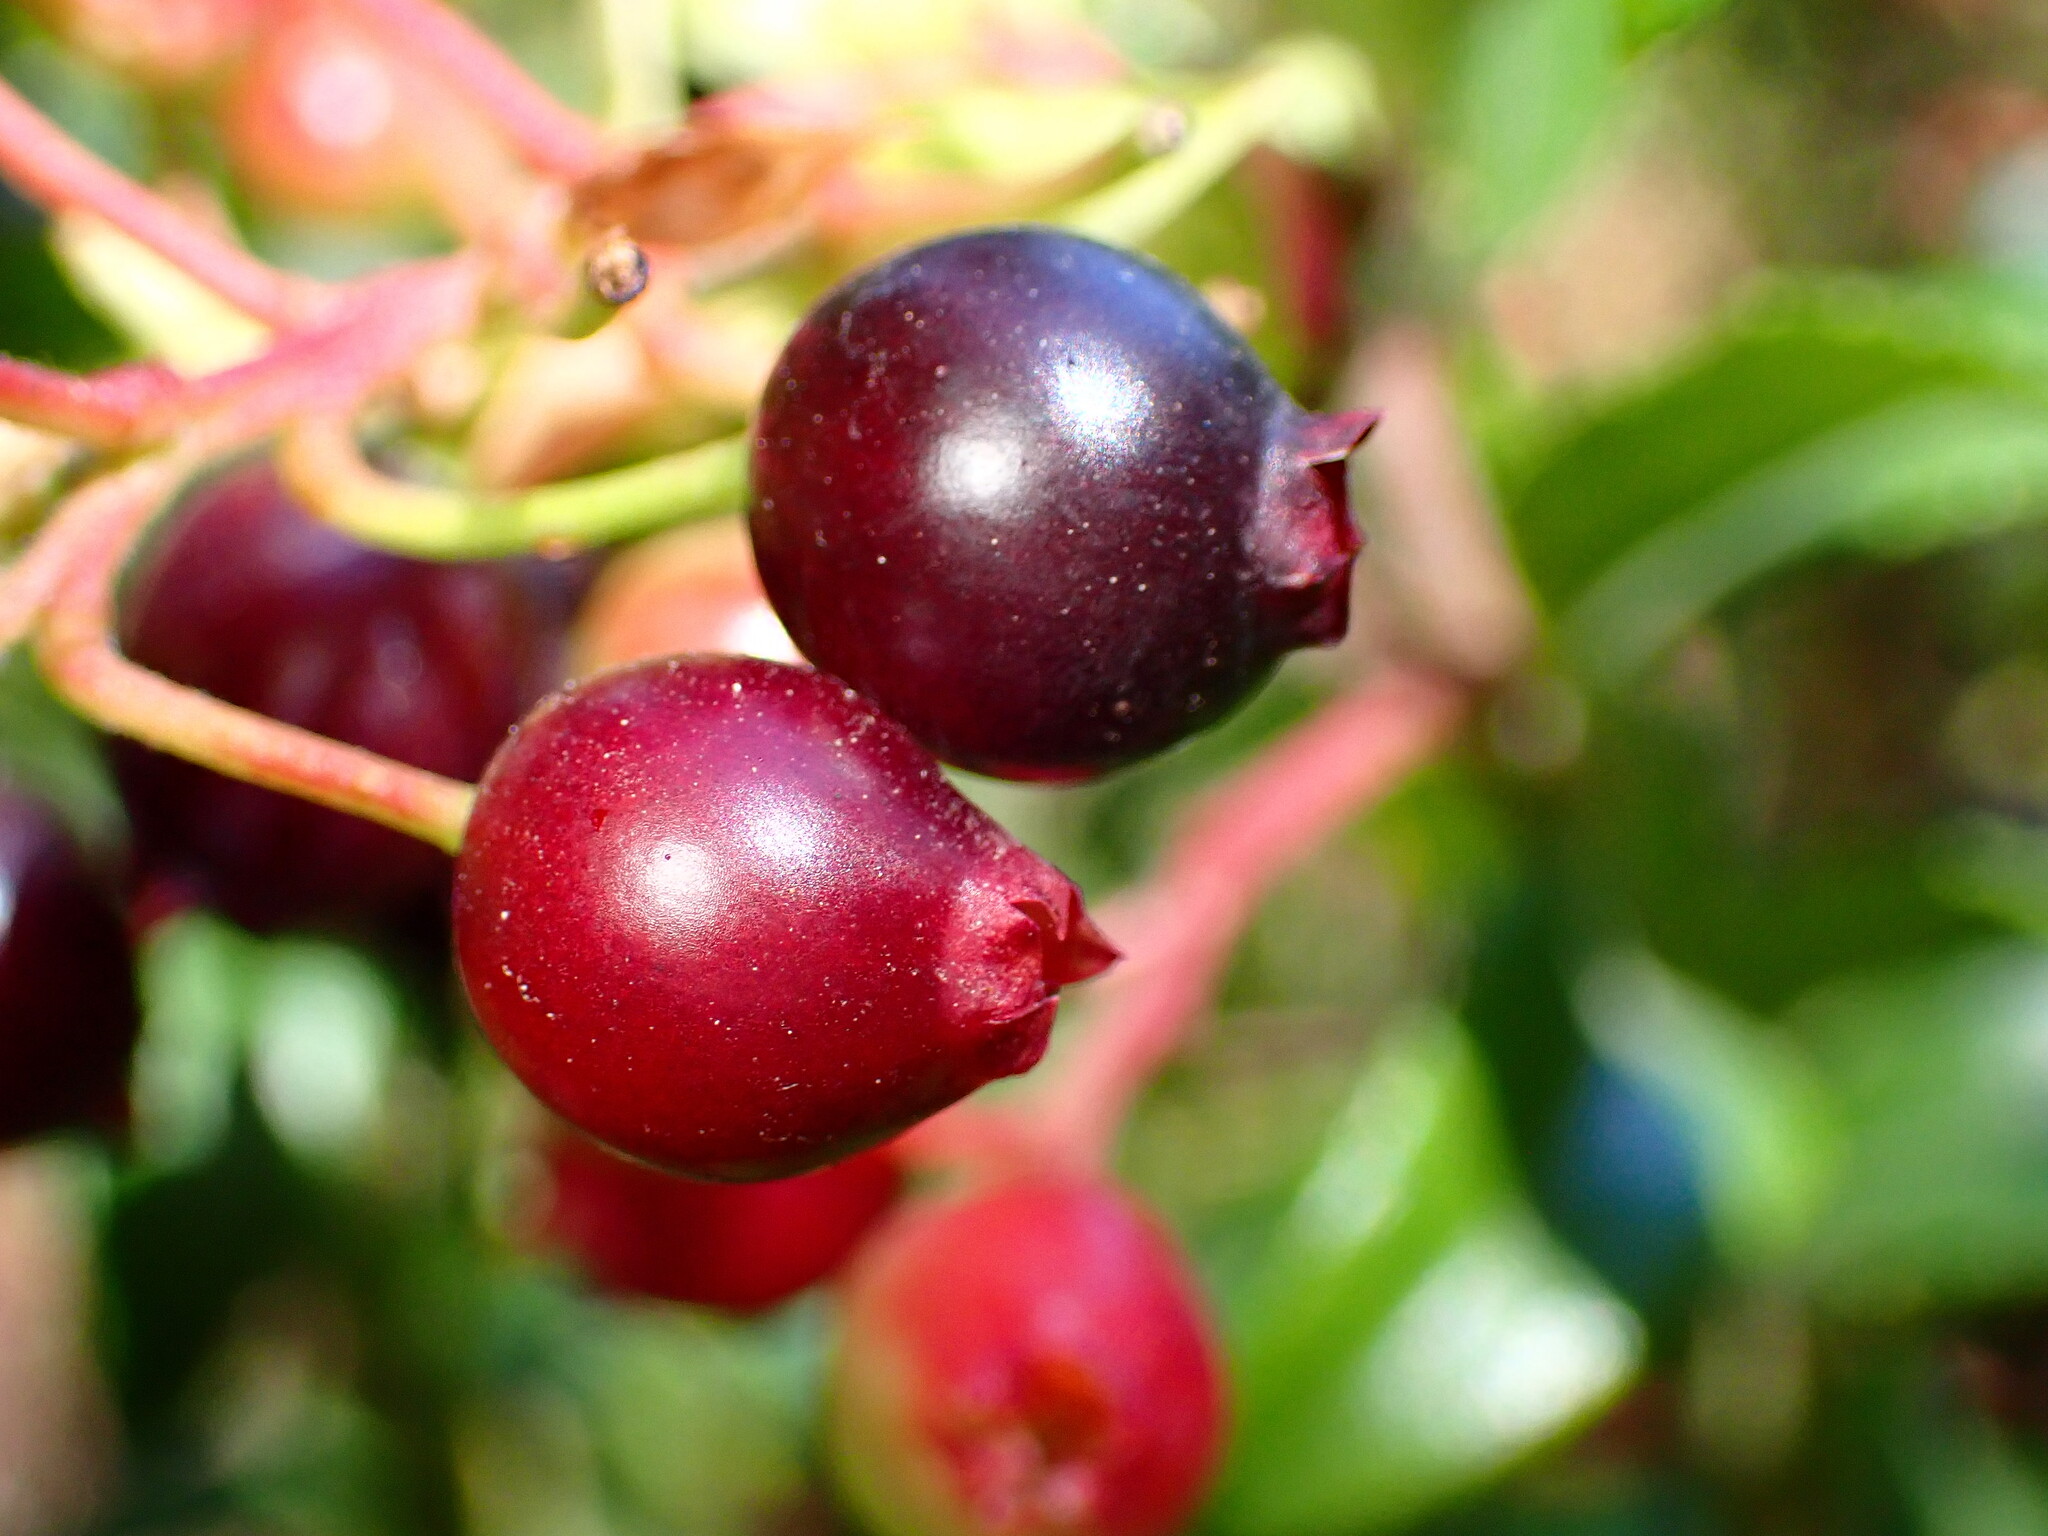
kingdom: Plantae
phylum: Tracheophyta
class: Magnoliopsida
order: Ericales
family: Ericaceae
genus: Vaccinium
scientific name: Vaccinium ovatum
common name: California-huckleberry
